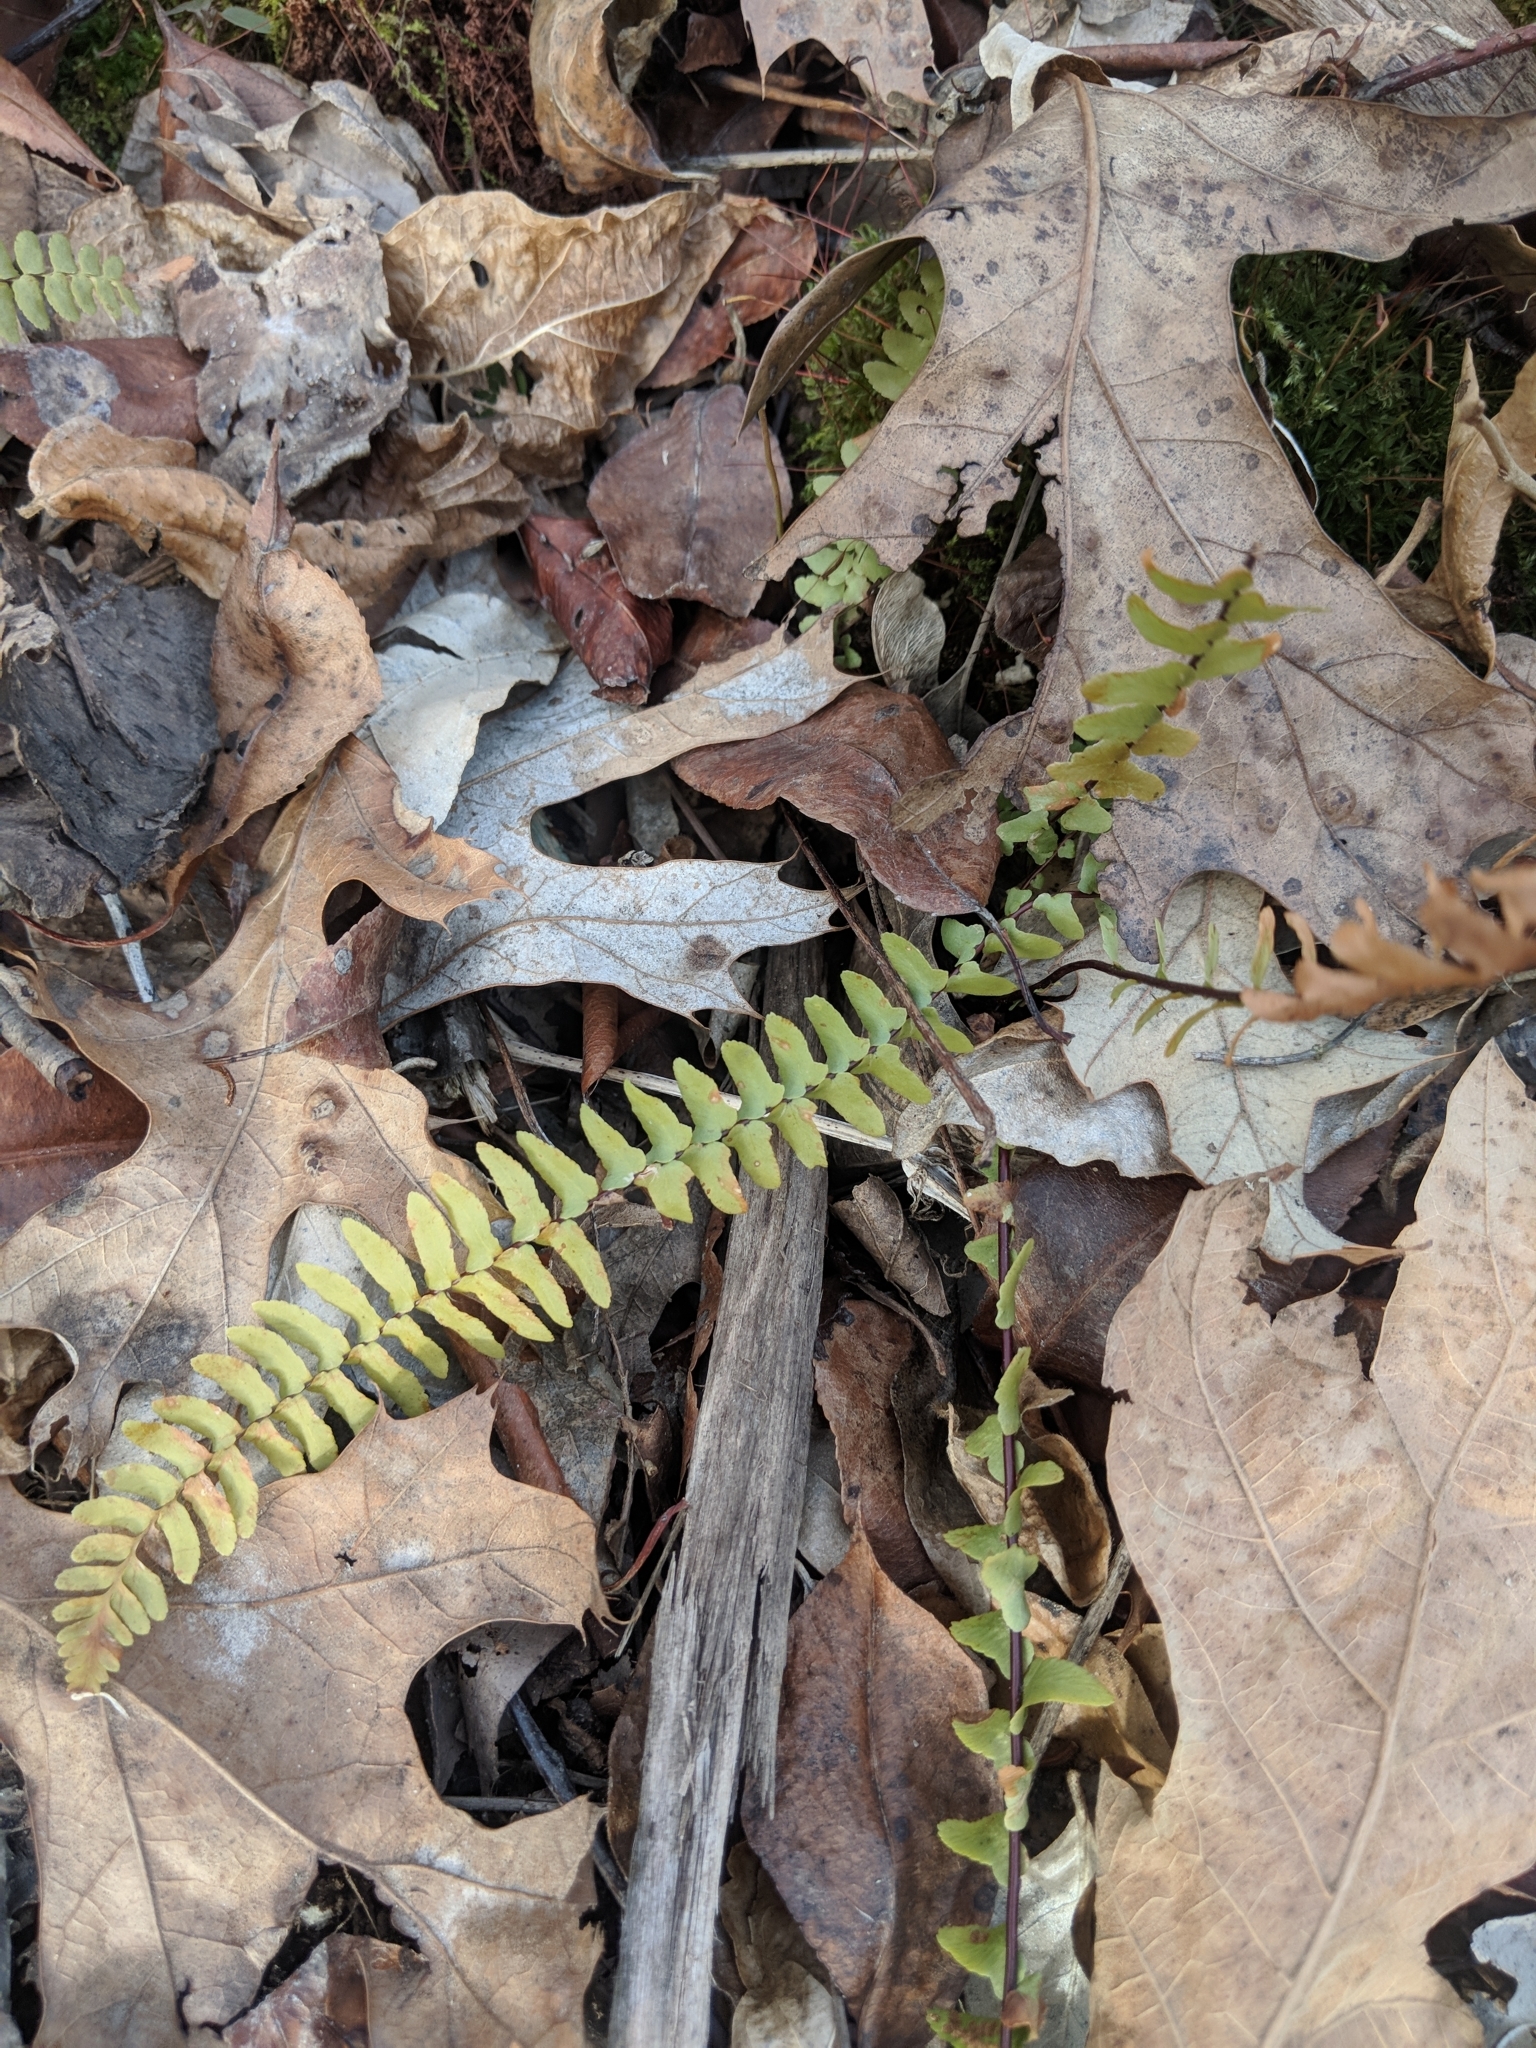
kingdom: Plantae
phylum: Tracheophyta
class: Polypodiopsida
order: Polypodiales
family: Aspleniaceae
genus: Asplenium
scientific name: Asplenium platyneuron
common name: Ebony spleenwort
